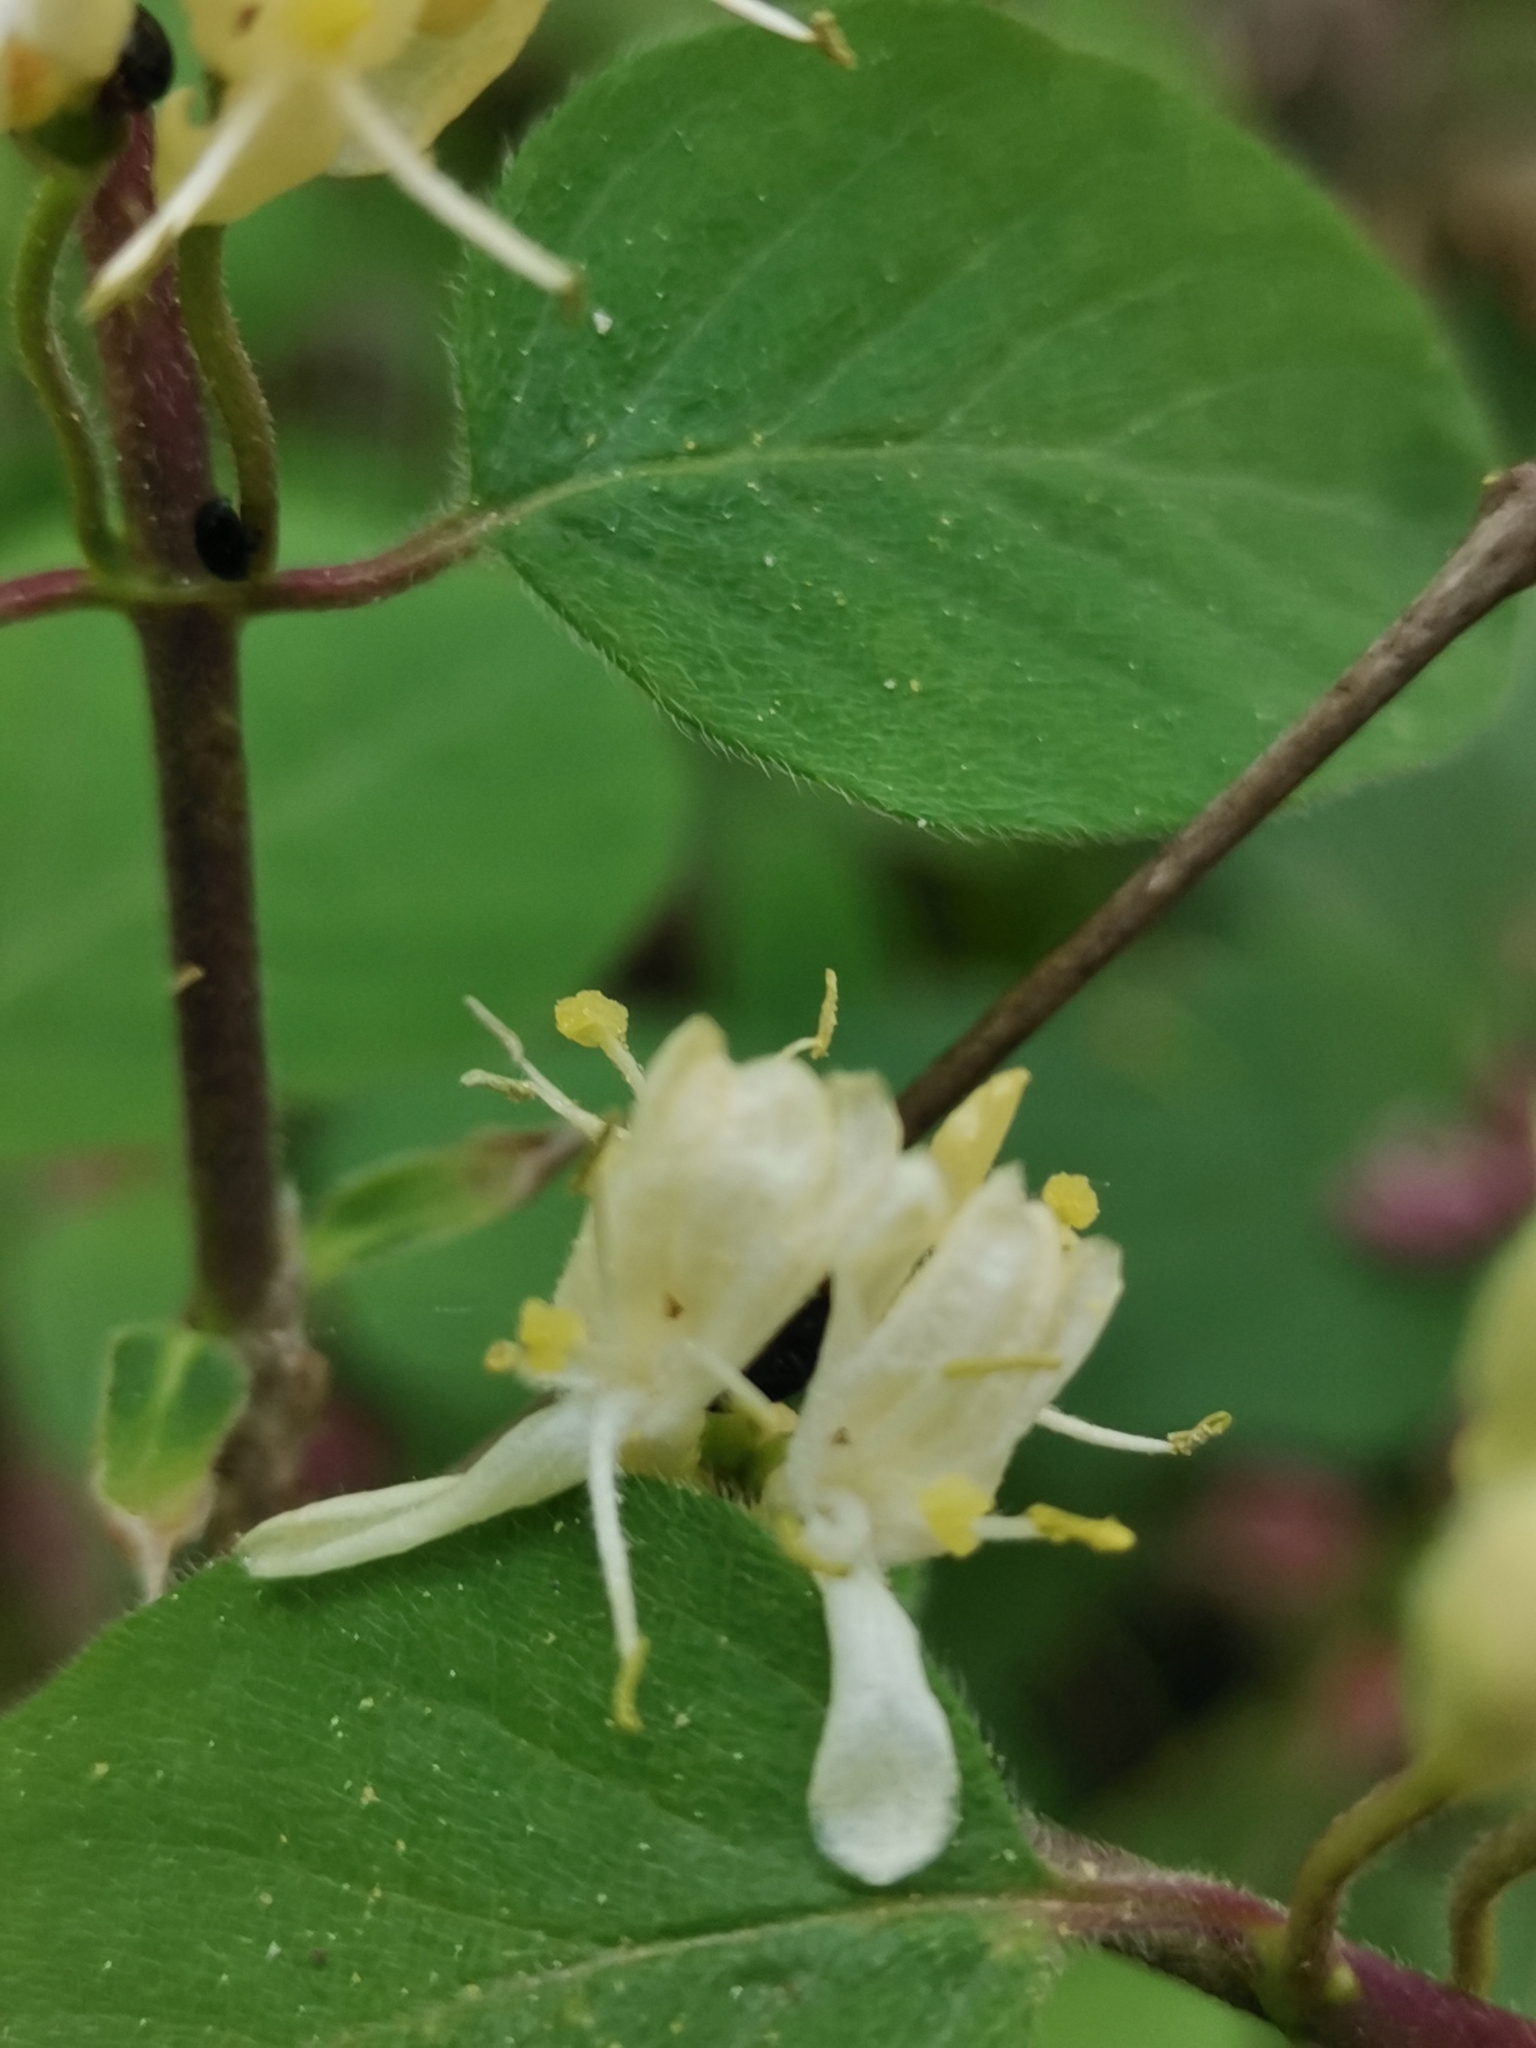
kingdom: Plantae
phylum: Tracheophyta
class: Magnoliopsida
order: Dipsacales
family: Caprifoliaceae
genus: Lonicera
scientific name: Lonicera xylosteum
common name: Fly honeysuckle
